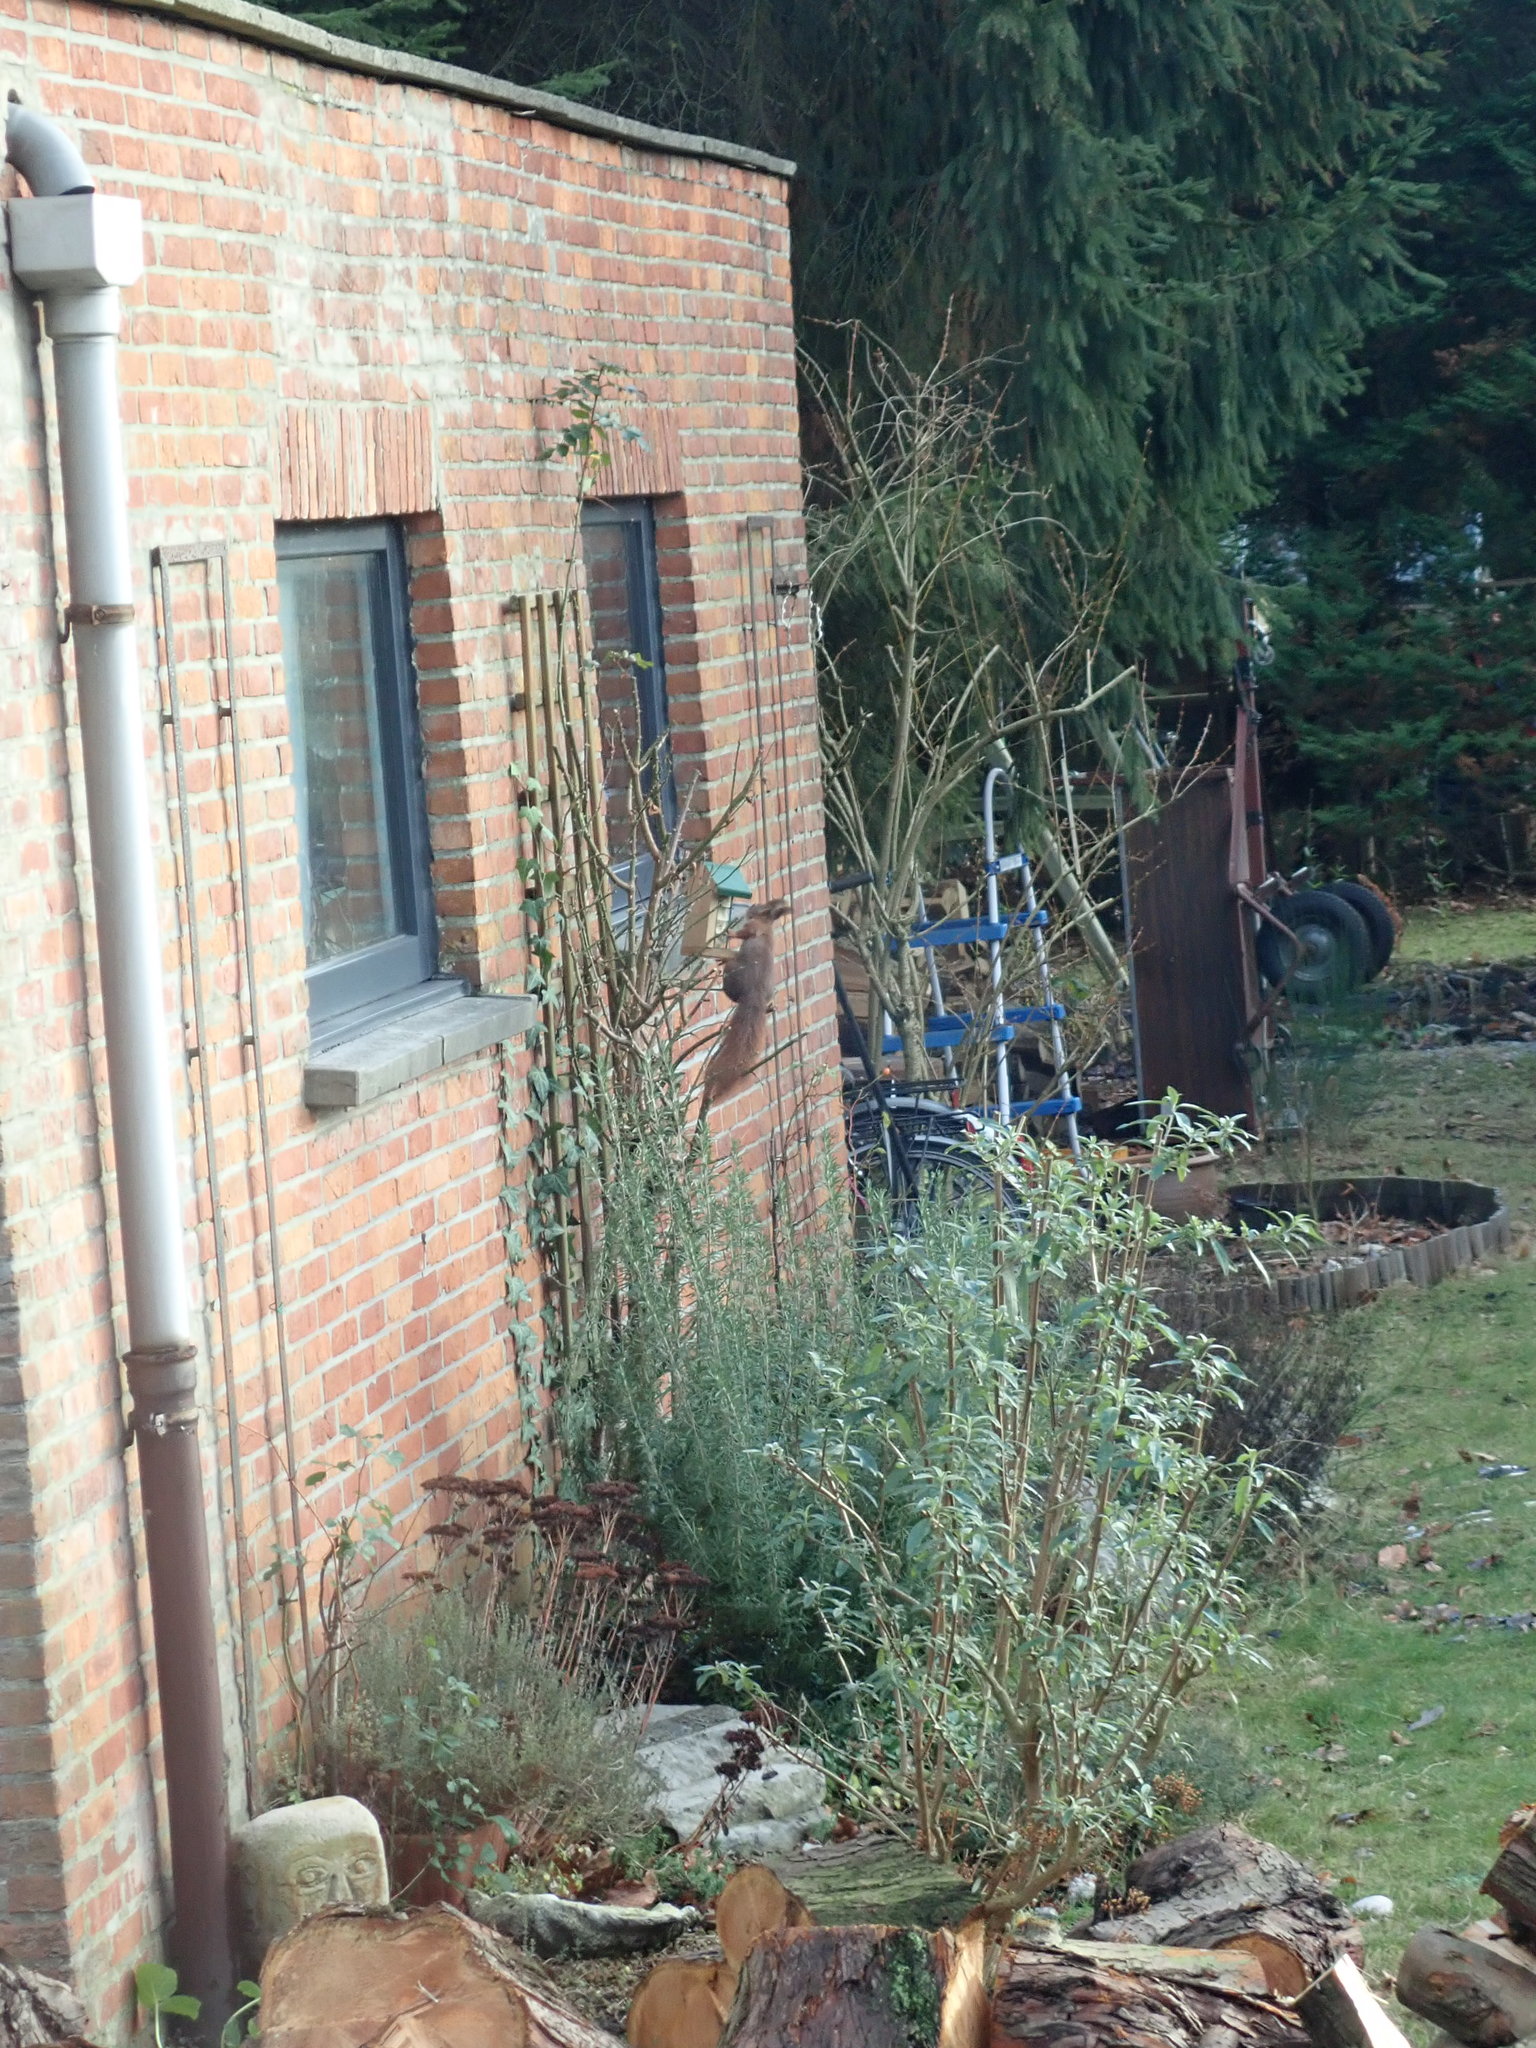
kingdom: Animalia
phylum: Chordata
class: Mammalia
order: Rodentia
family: Sciuridae
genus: Sciurus
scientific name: Sciurus vulgaris
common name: Eurasian red squirrel
